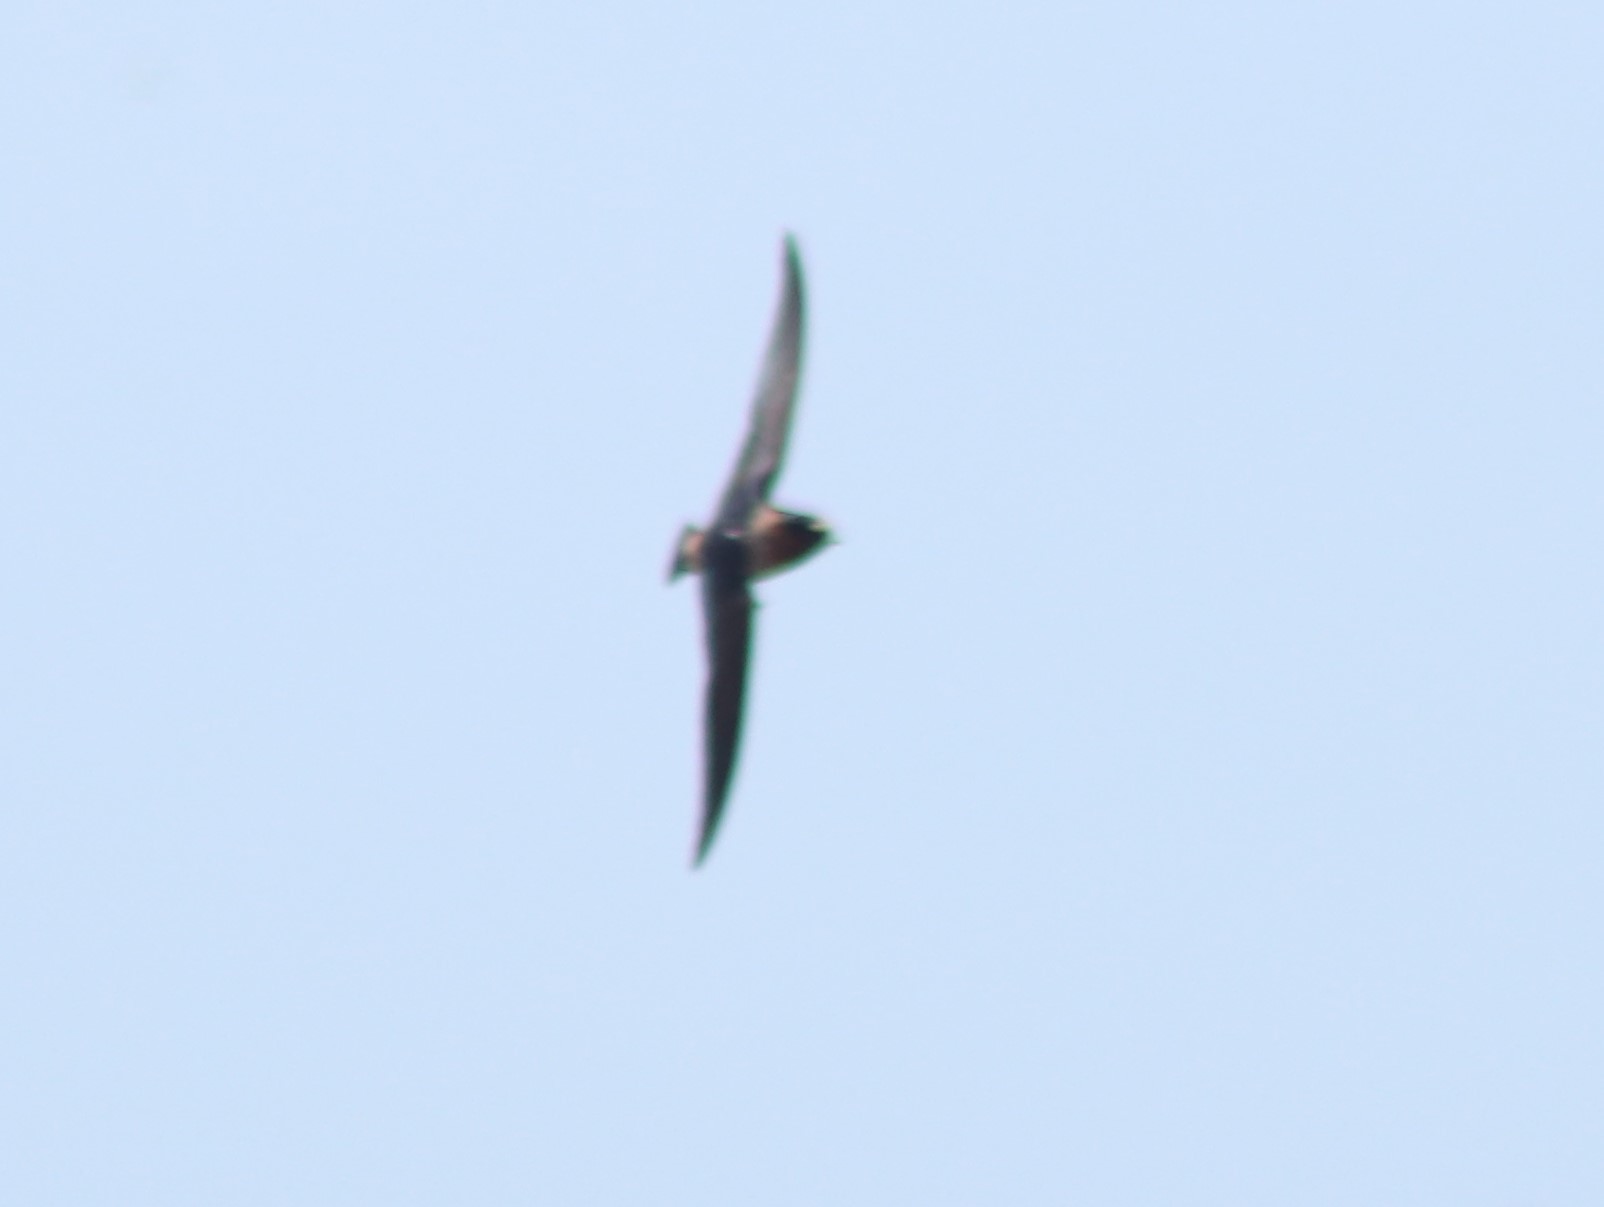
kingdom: Animalia
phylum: Chordata
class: Aves
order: Passeriformes
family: Hirundinidae
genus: Petrochelidon
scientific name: Petrochelidon pyrrhonota
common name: American cliff swallow
